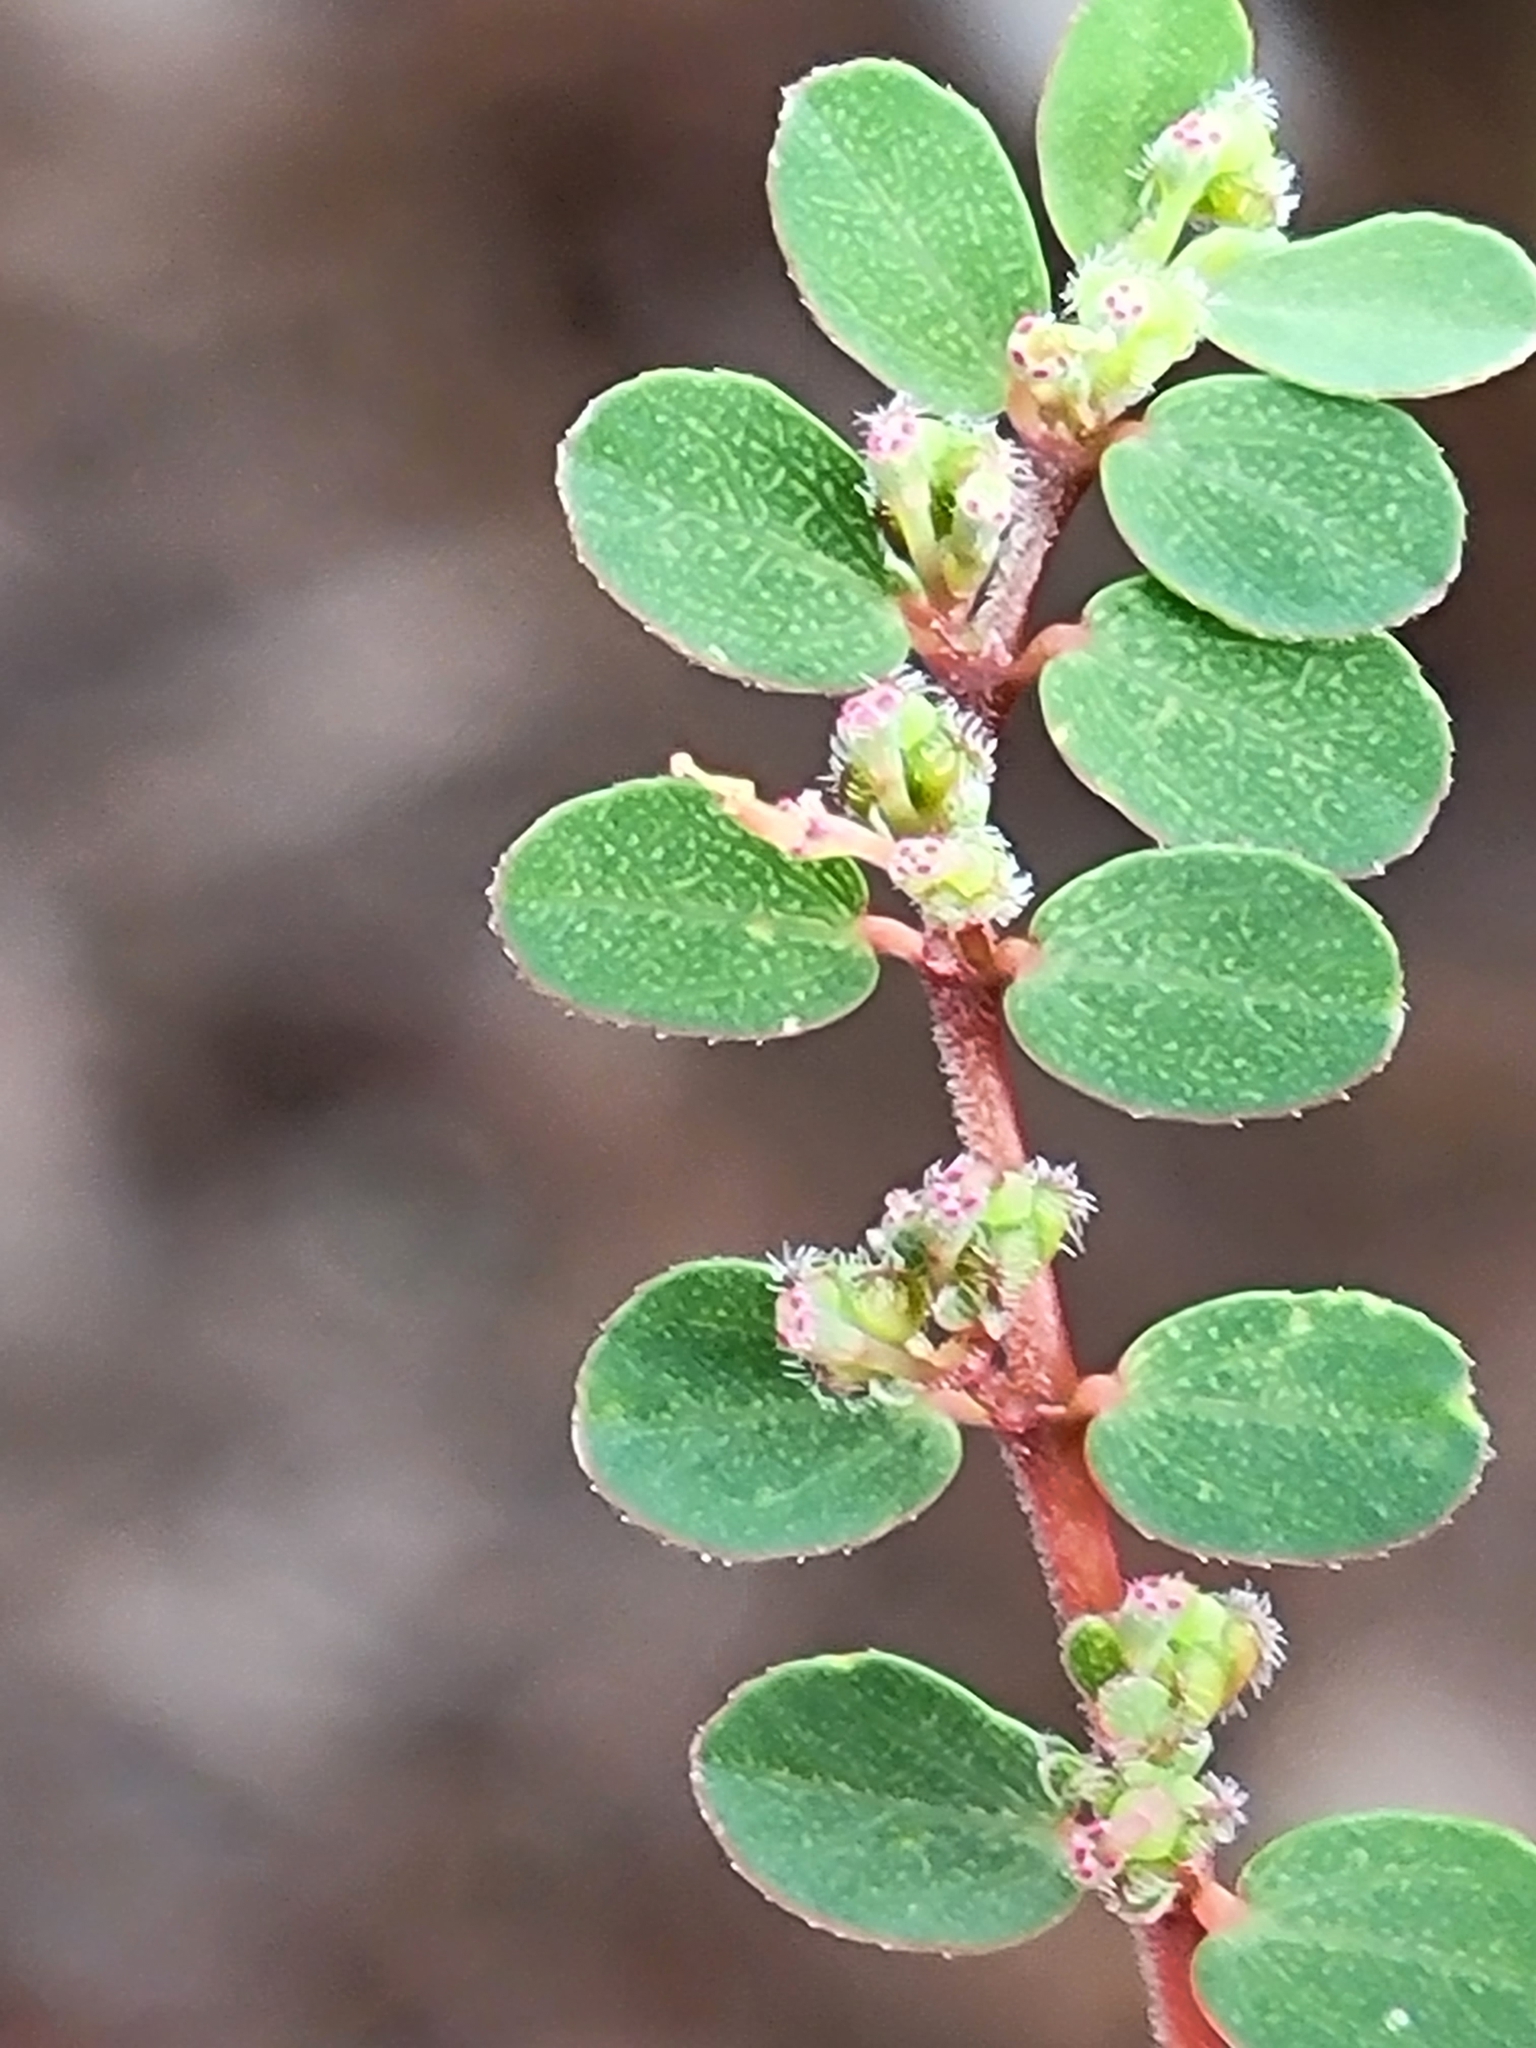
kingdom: Plantae
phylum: Tracheophyta
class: Magnoliopsida
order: Malpighiales
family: Euphorbiaceae
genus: Euphorbia
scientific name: Euphorbia prostrata
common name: Prostrate sandmat
